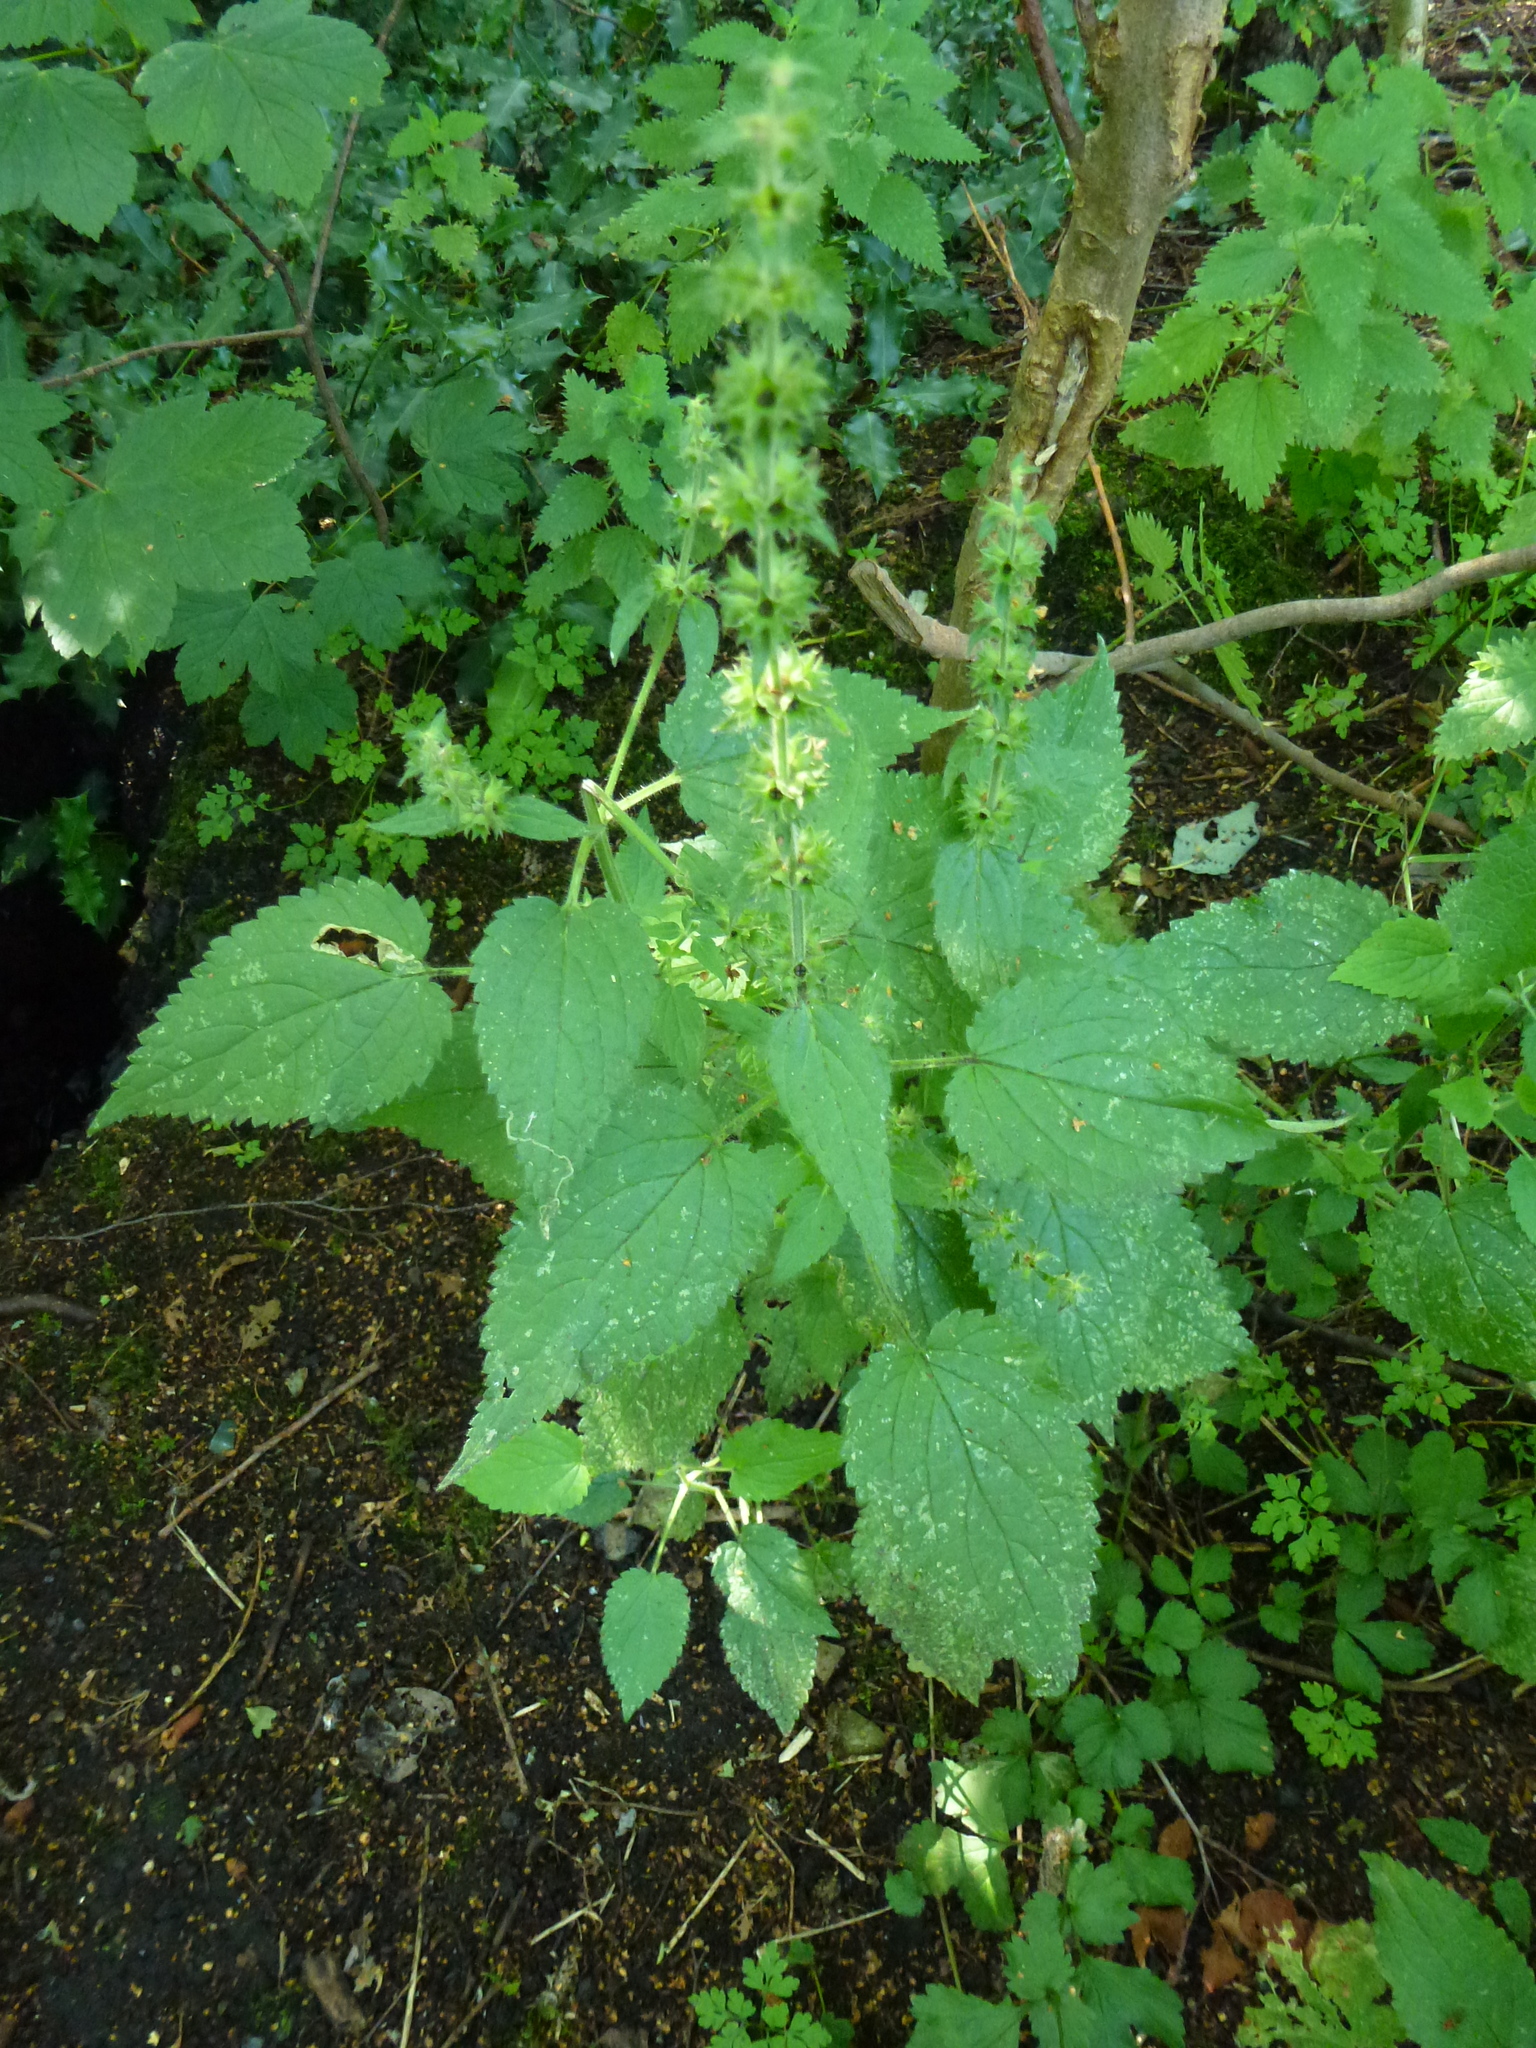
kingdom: Plantae
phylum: Tracheophyta
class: Magnoliopsida
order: Lamiales
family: Lamiaceae
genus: Stachys
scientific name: Stachys sylvatica
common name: Hedge woundwort
